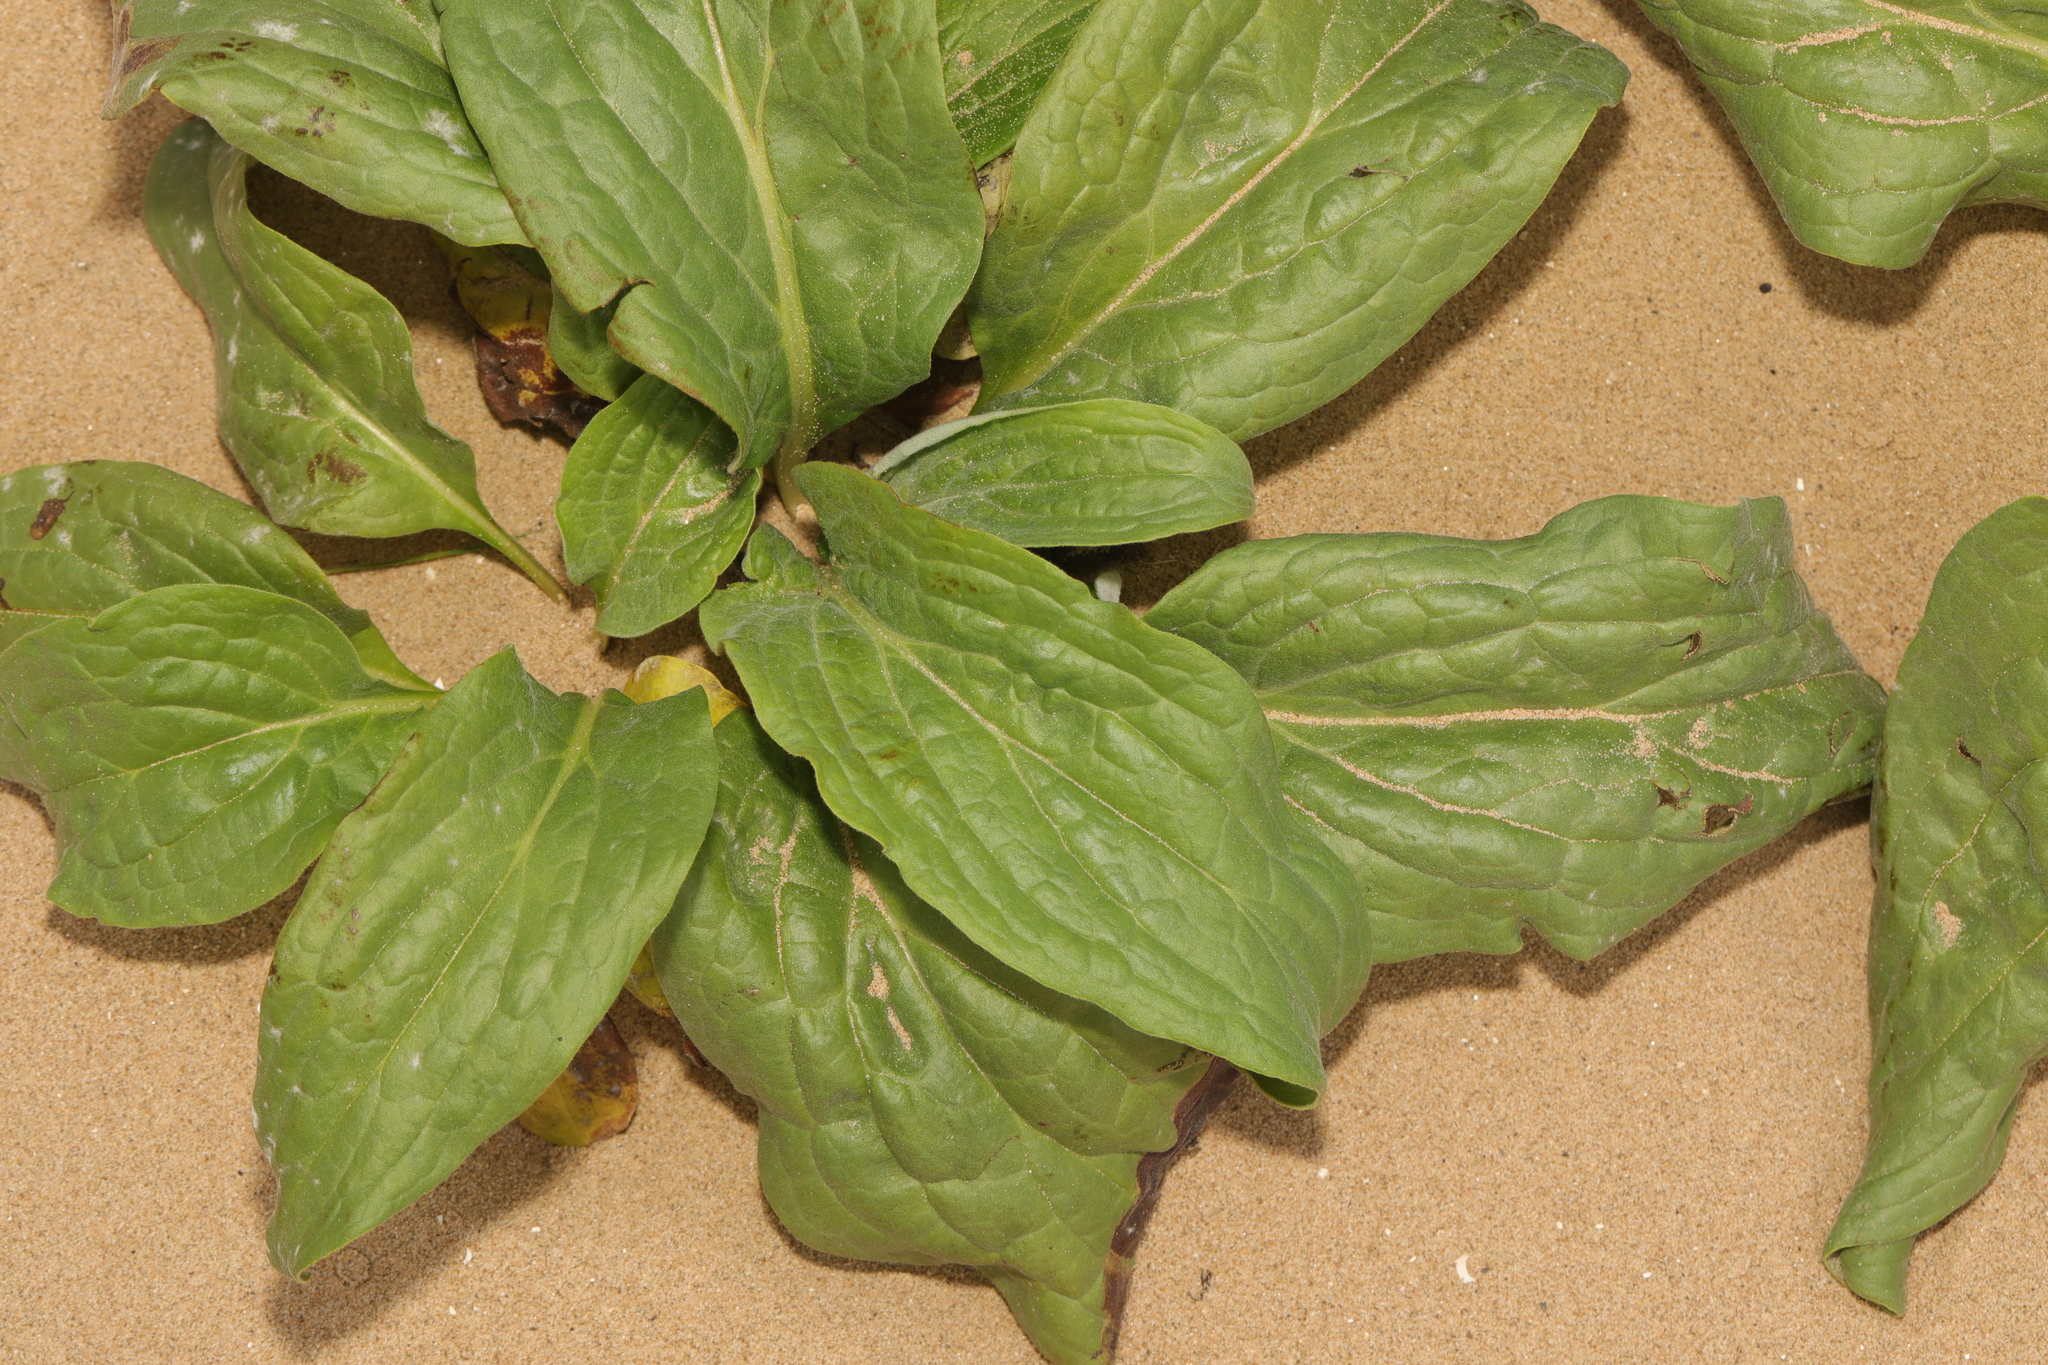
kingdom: Plantae
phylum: Tracheophyta
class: Magnoliopsida
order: Boraginales
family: Boraginaceae
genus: Cynoglossum
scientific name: Cynoglossum officinale
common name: Hound's-tongue
